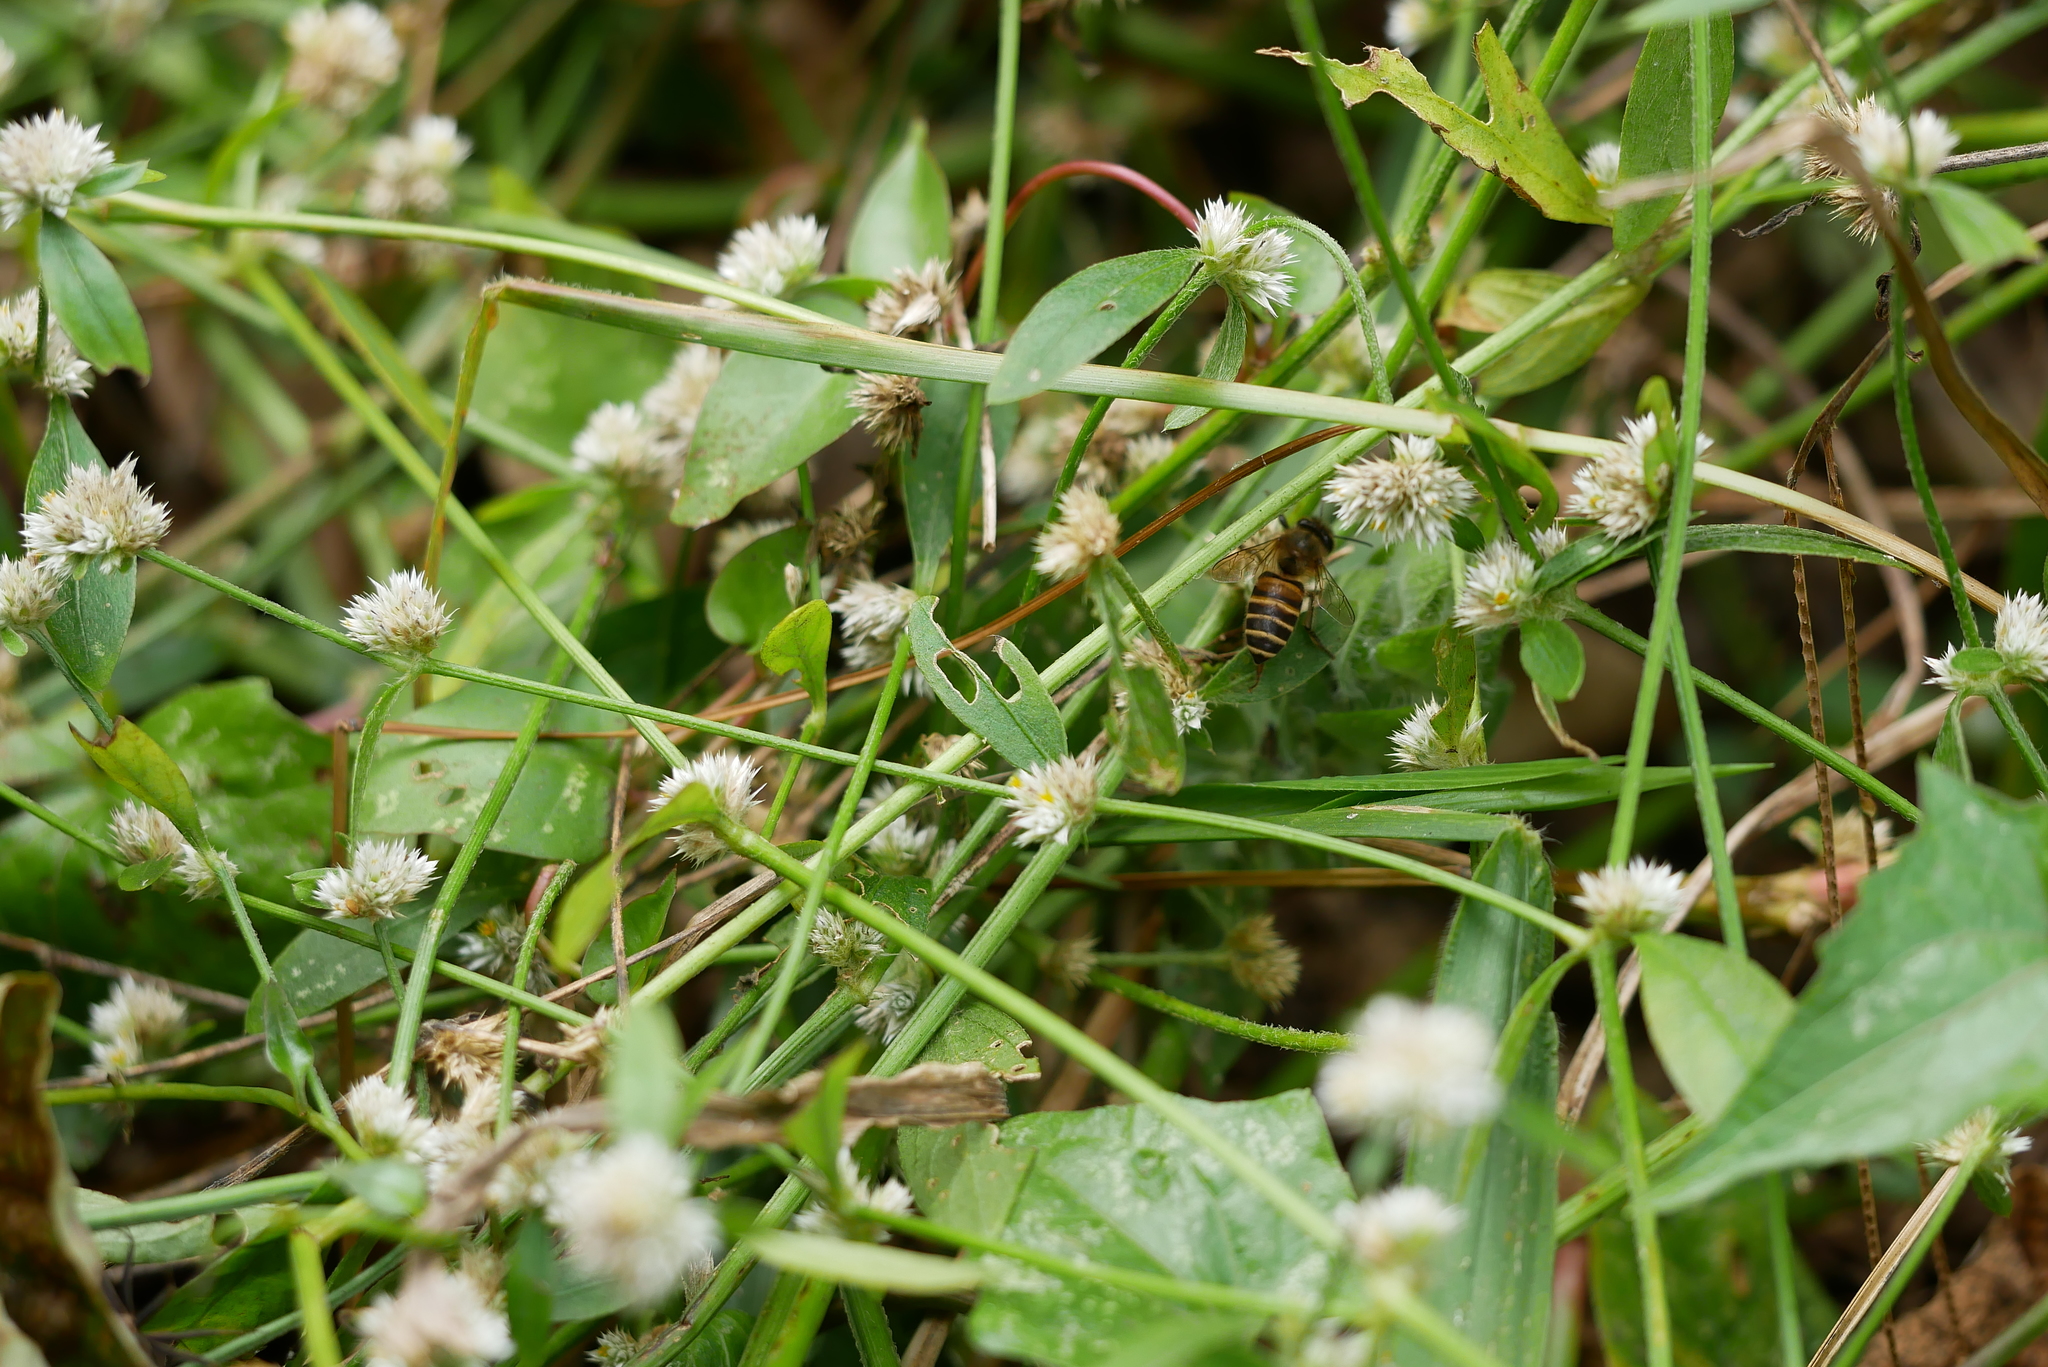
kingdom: Animalia
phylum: Arthropoda
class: Insecta
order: Hymenoptera
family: Apidae
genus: Apis
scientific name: Apis cerana
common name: Honey bee
